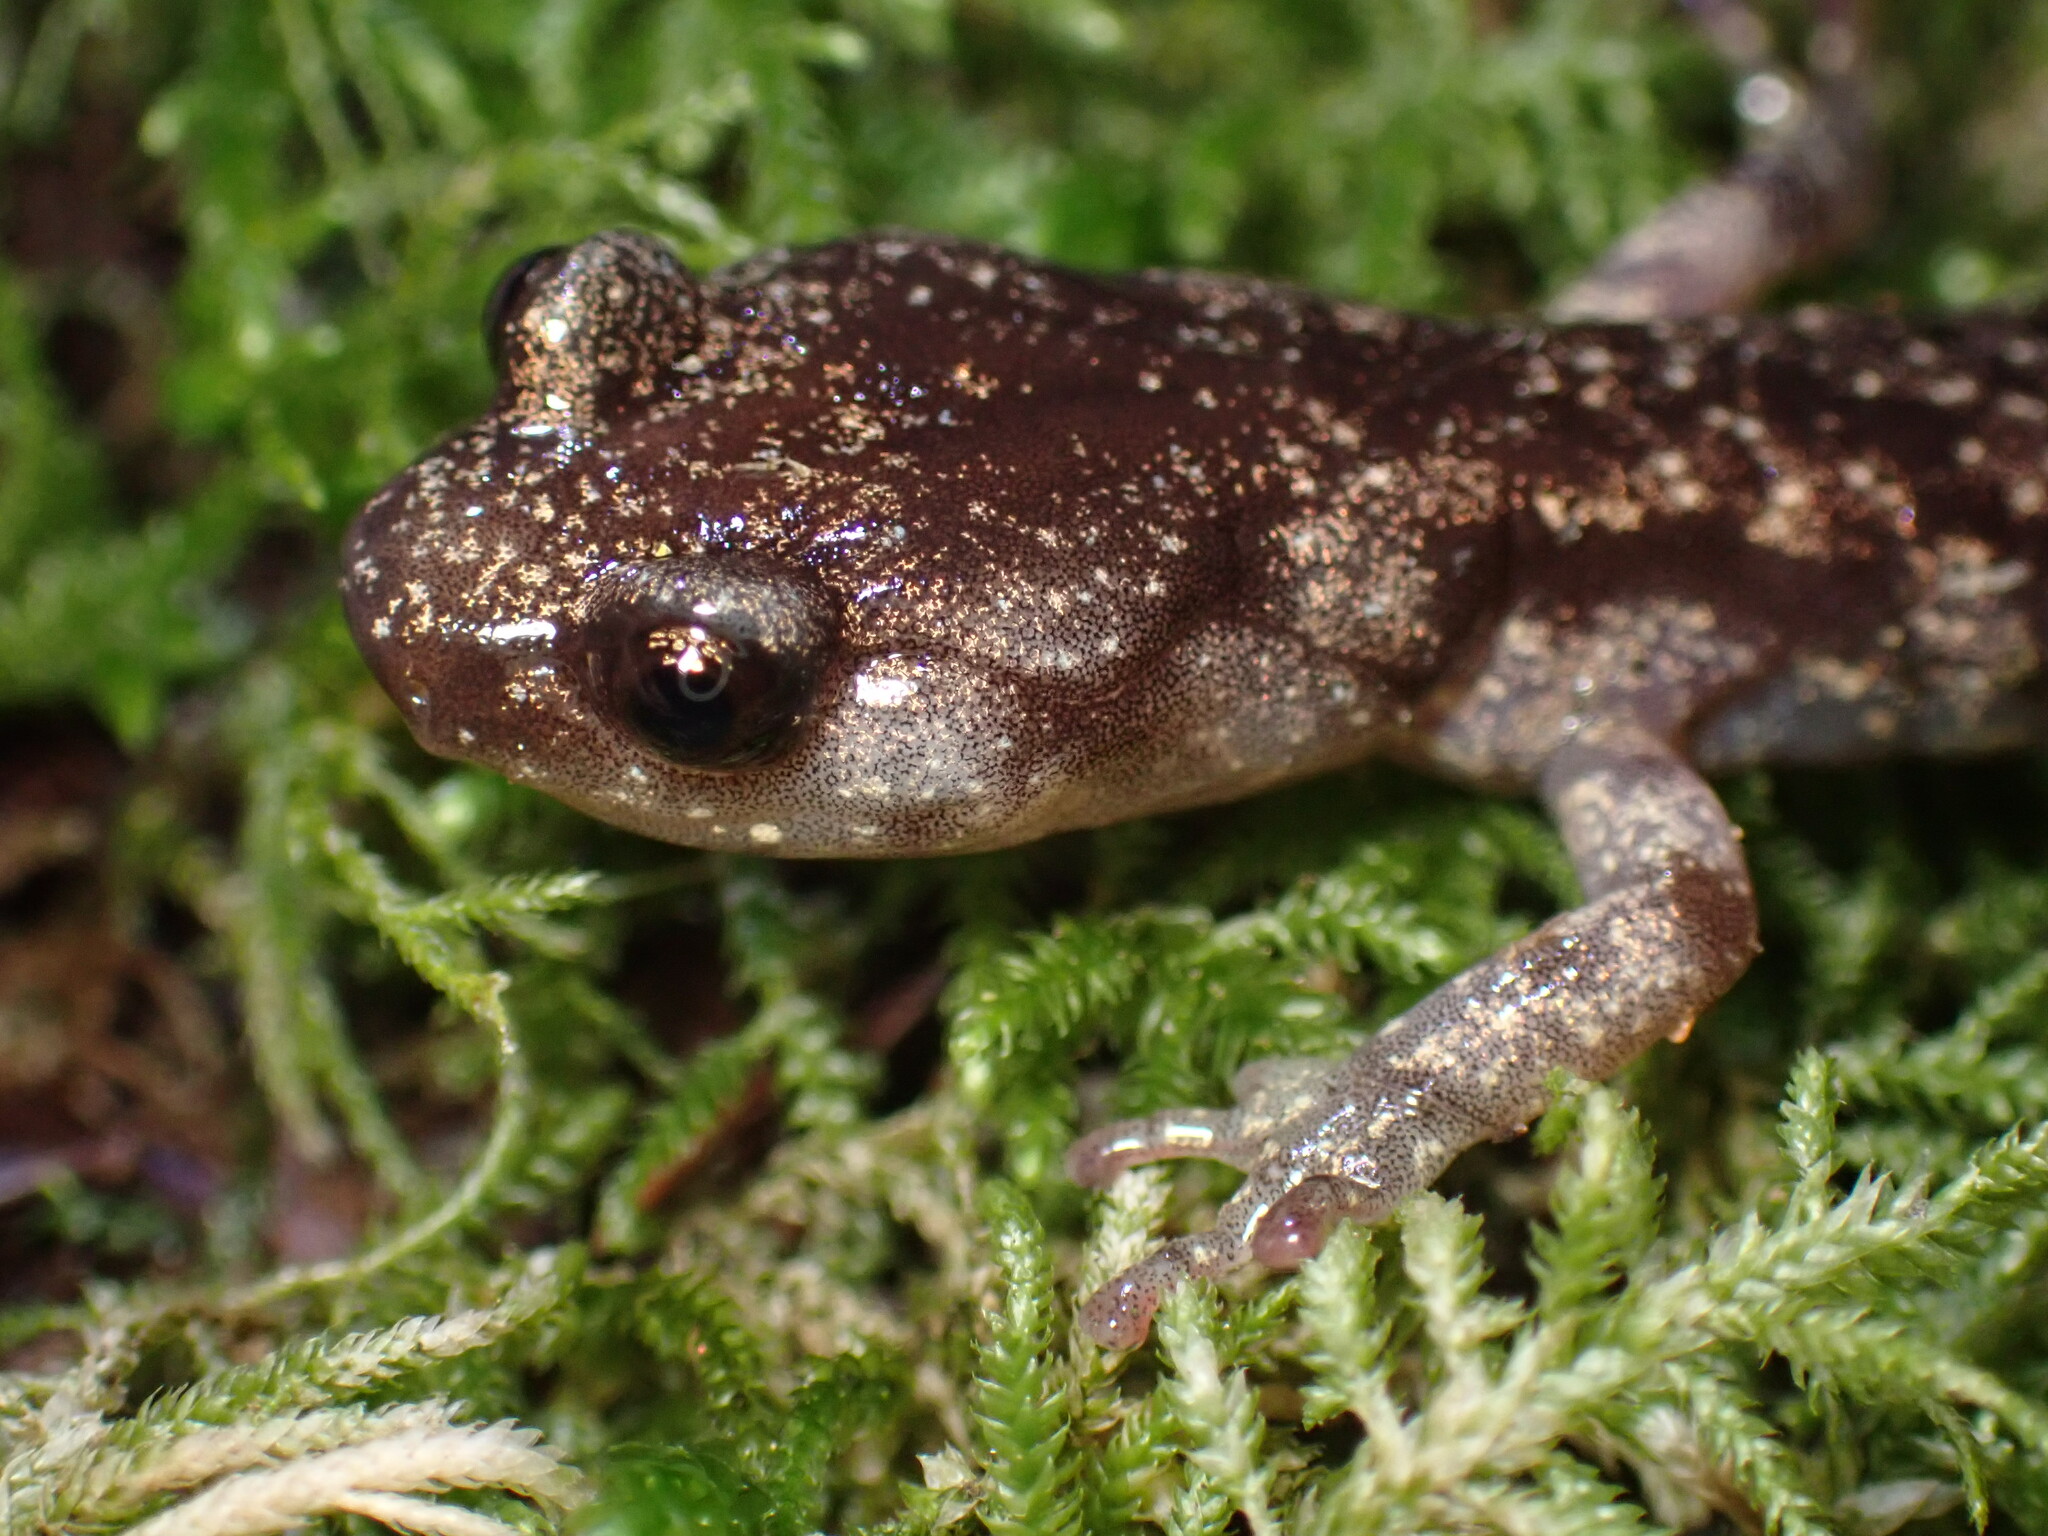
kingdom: Animalia
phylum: Chordata
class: Amphibia
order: Caudata
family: Plethodontidae
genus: Aneides
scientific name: Aneides vagrans
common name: Wandering salamander
